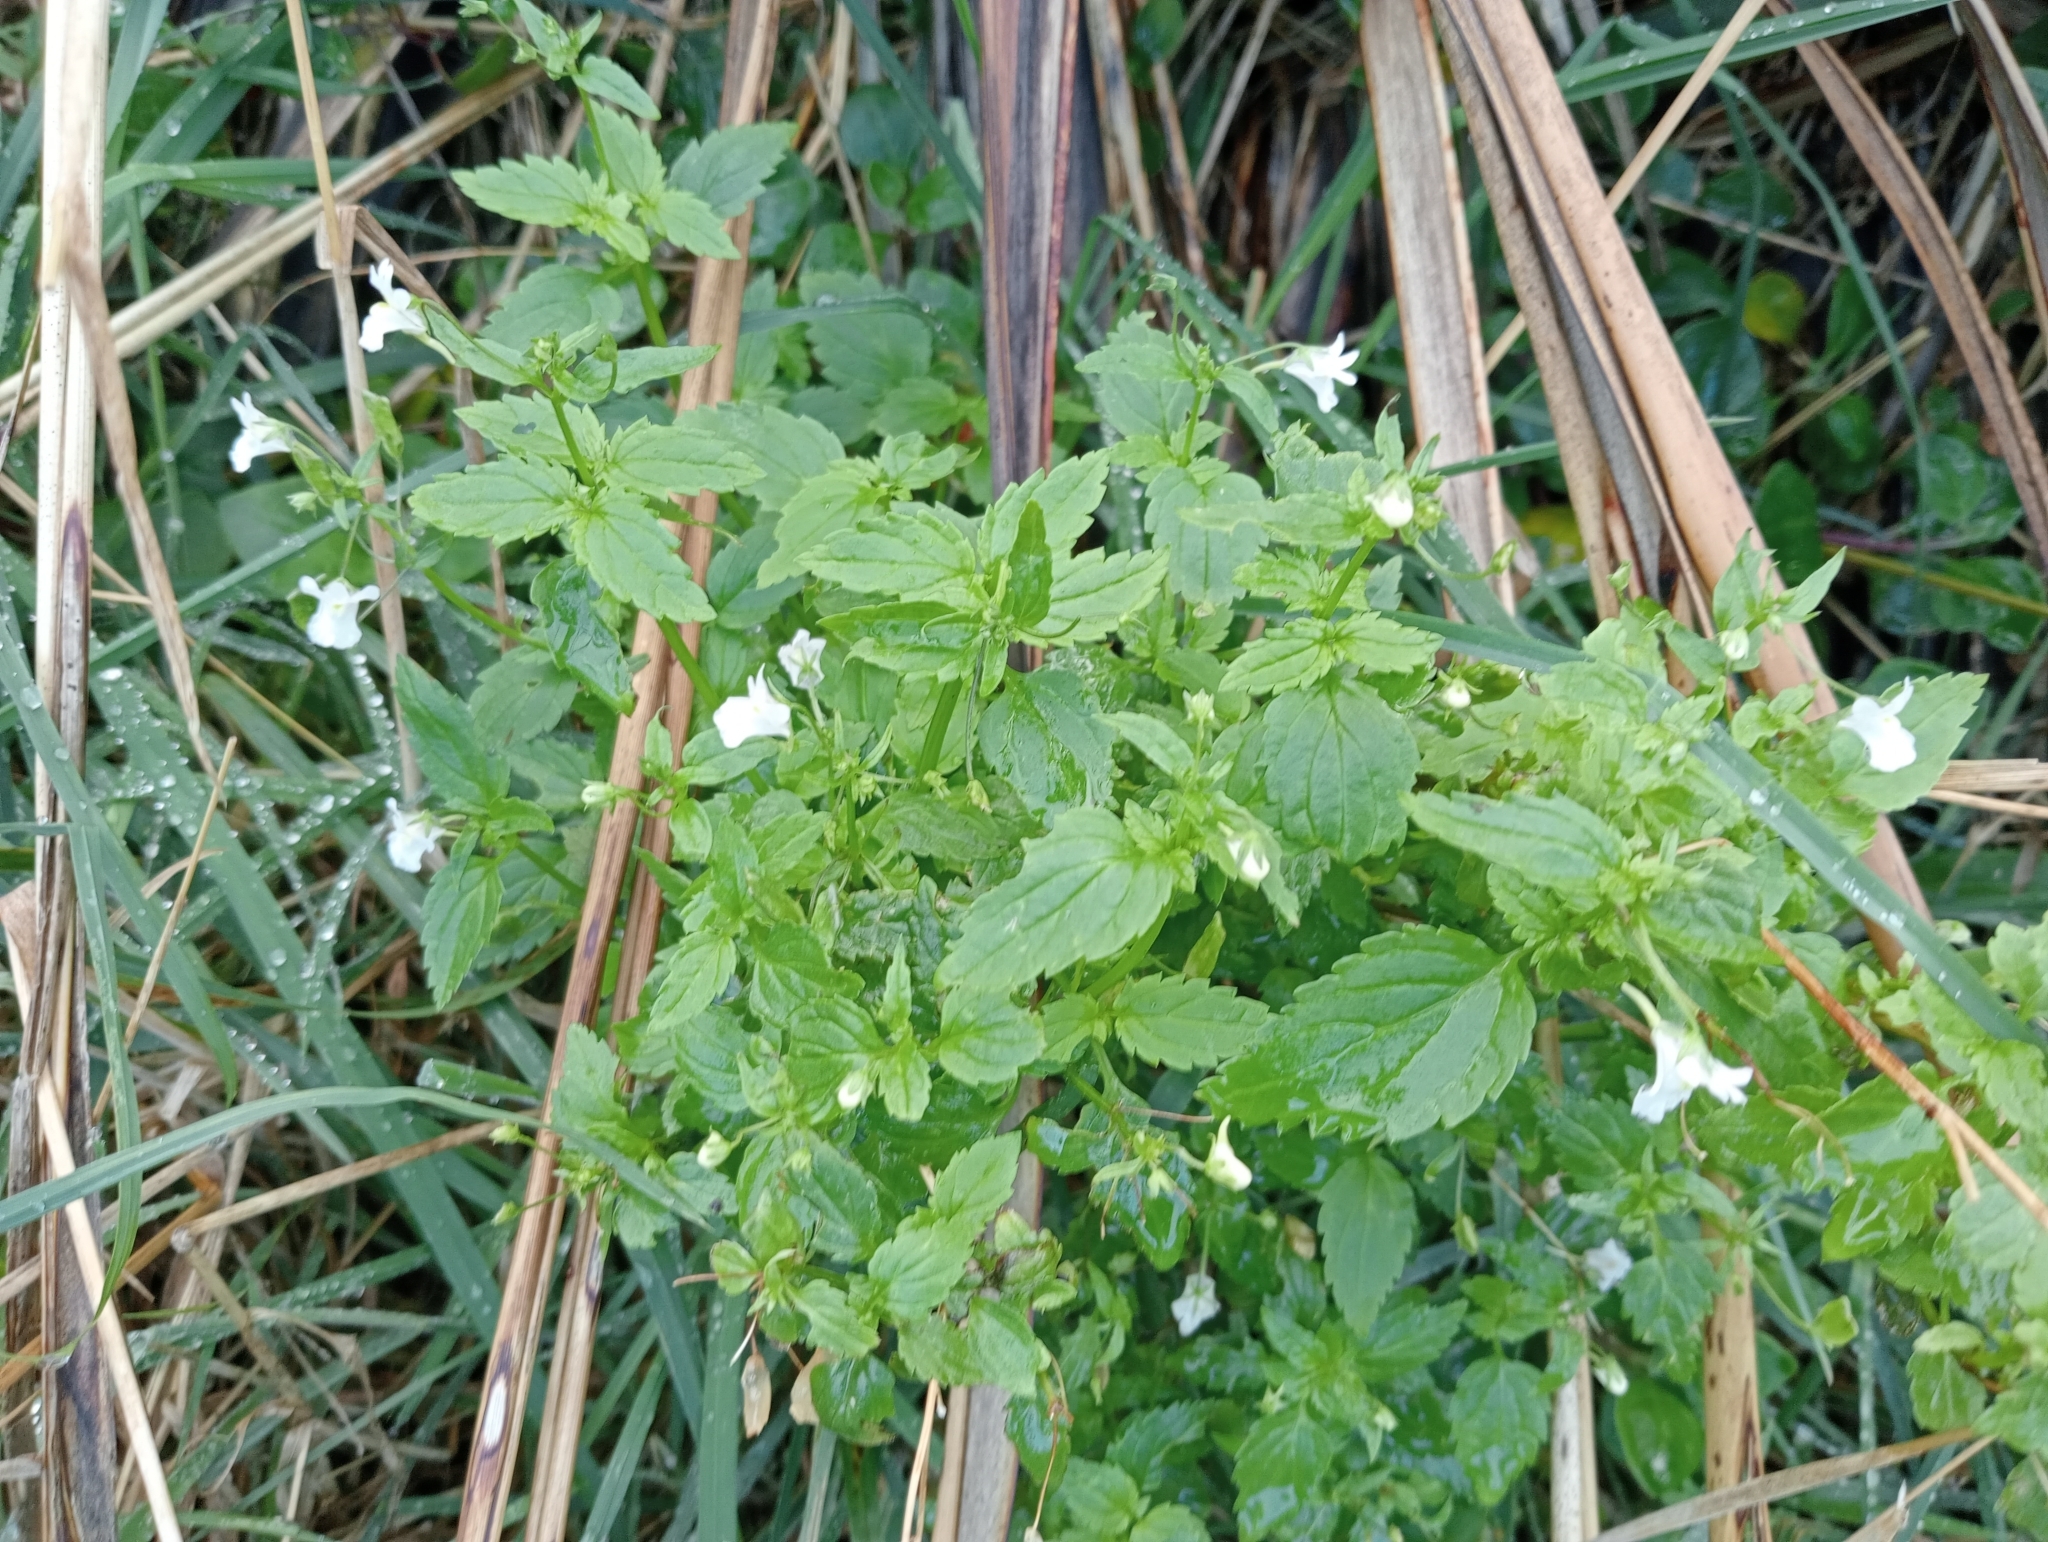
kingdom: Plantae
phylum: Tracheophyta
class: Magnoliopsida
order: Lamiales
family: Scrophulariaceae
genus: Nemesia
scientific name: Nemesia floribunda
